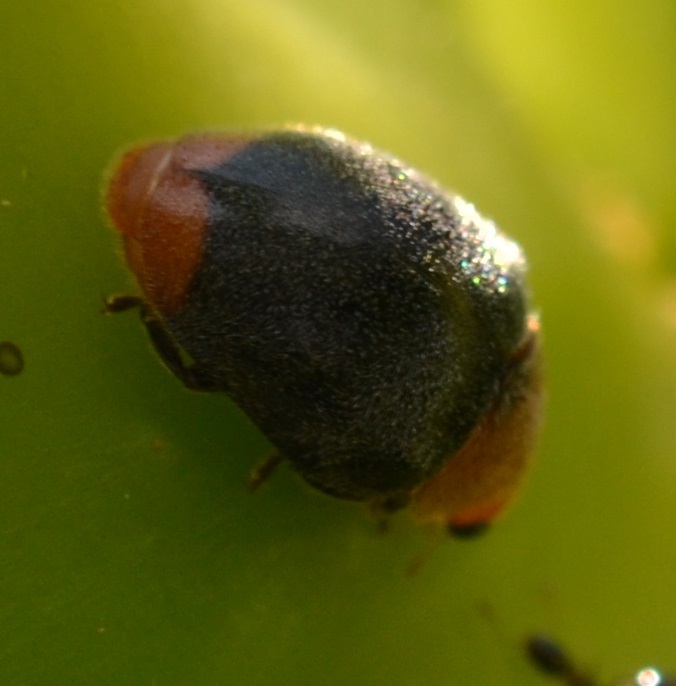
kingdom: Animalia
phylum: Arthropoda
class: Insecta
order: Coleoptera
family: Coccinellidae
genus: Cryptolaemus
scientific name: Cryptolaemus montrouzieri
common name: Mealybug destroyer
